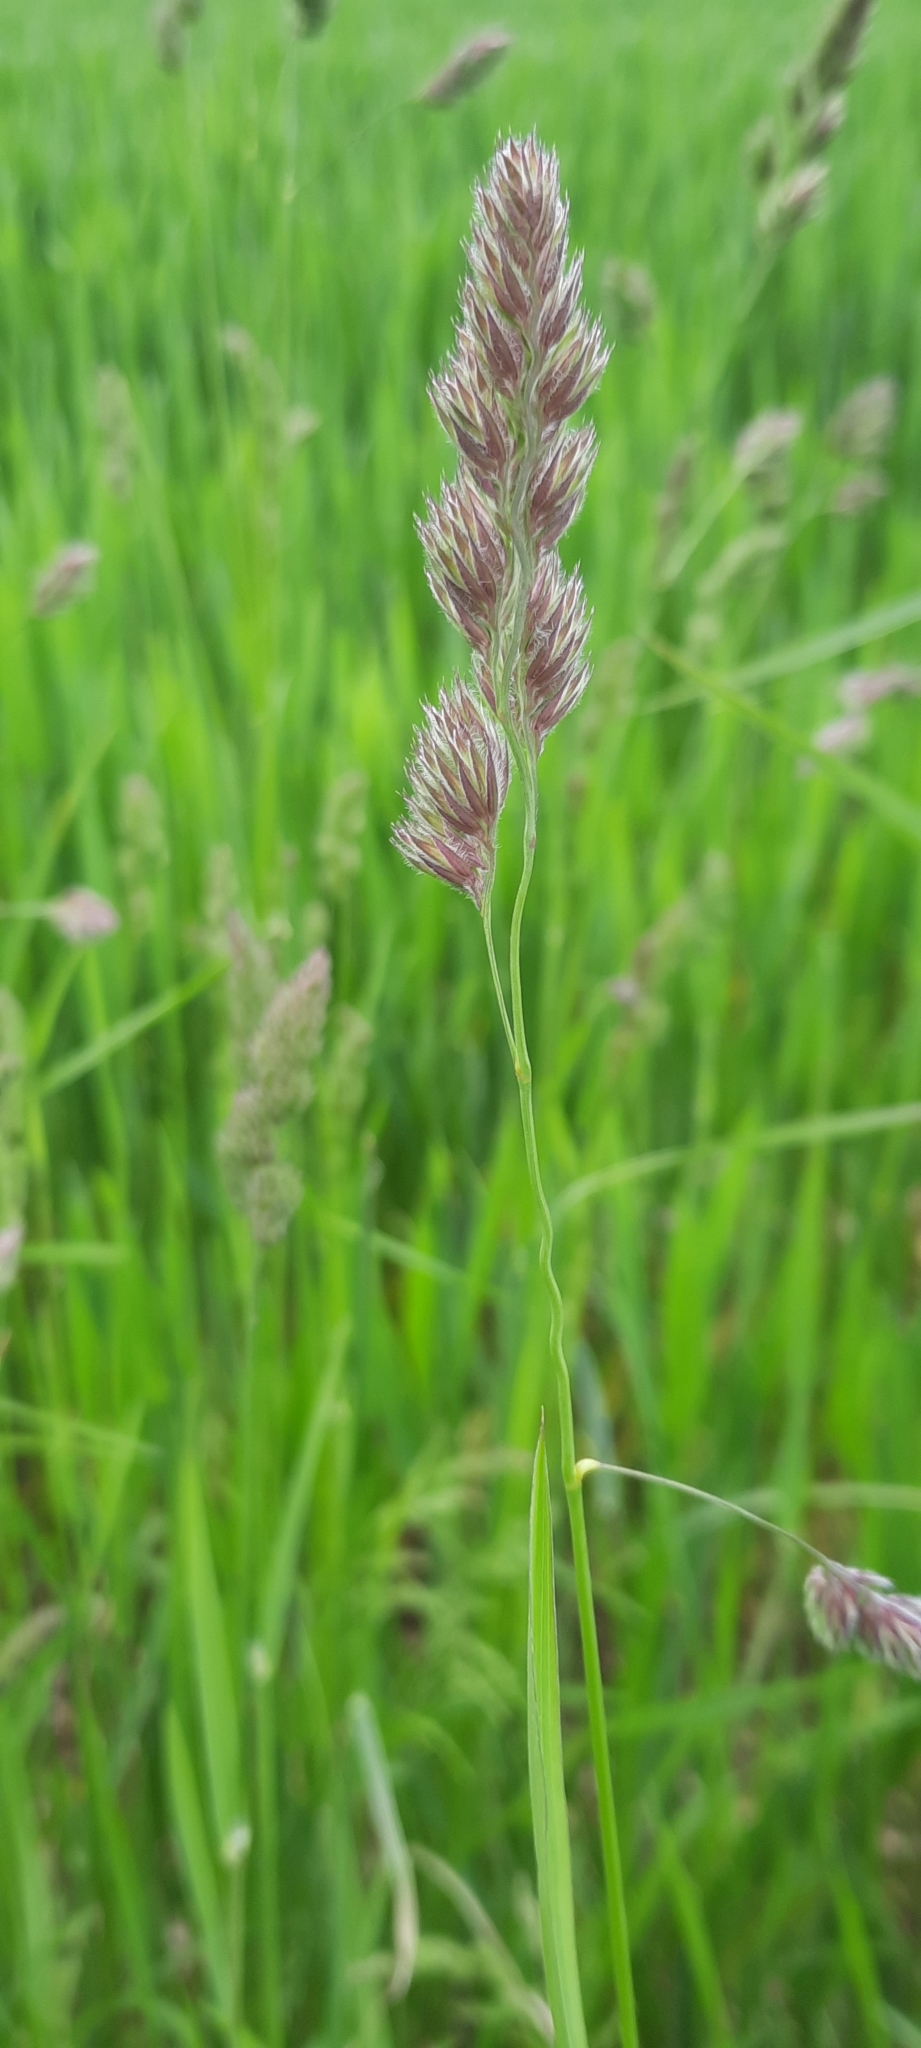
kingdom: Plantae
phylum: Tracheophyta
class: Liliopsida
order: Poales
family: Poaceae
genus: Dactylis
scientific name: Dactylis glomerata
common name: Orchardgrass
